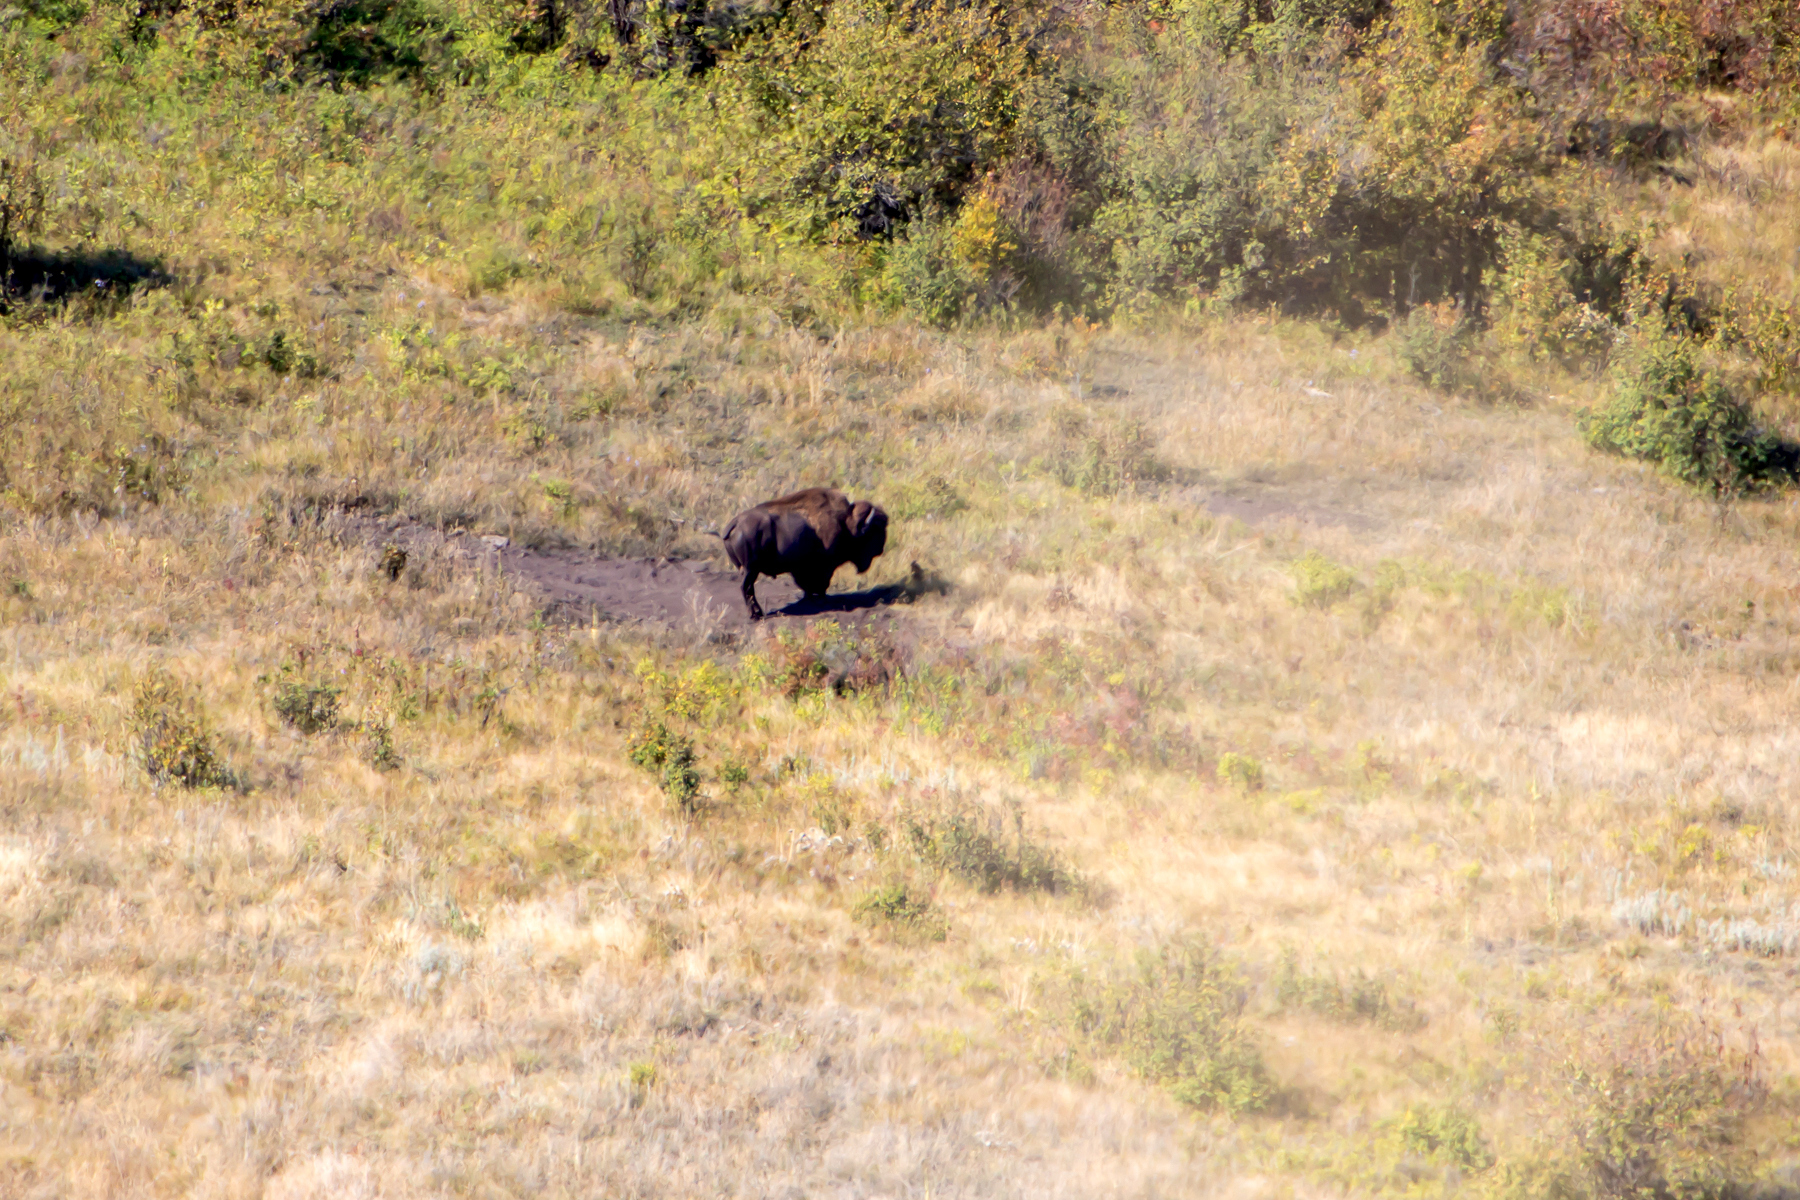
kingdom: Animalia
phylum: Chordata
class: Mammalia
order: Artiodactyla
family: Bovidae
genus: Bison
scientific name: Bison bison
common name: American bison
